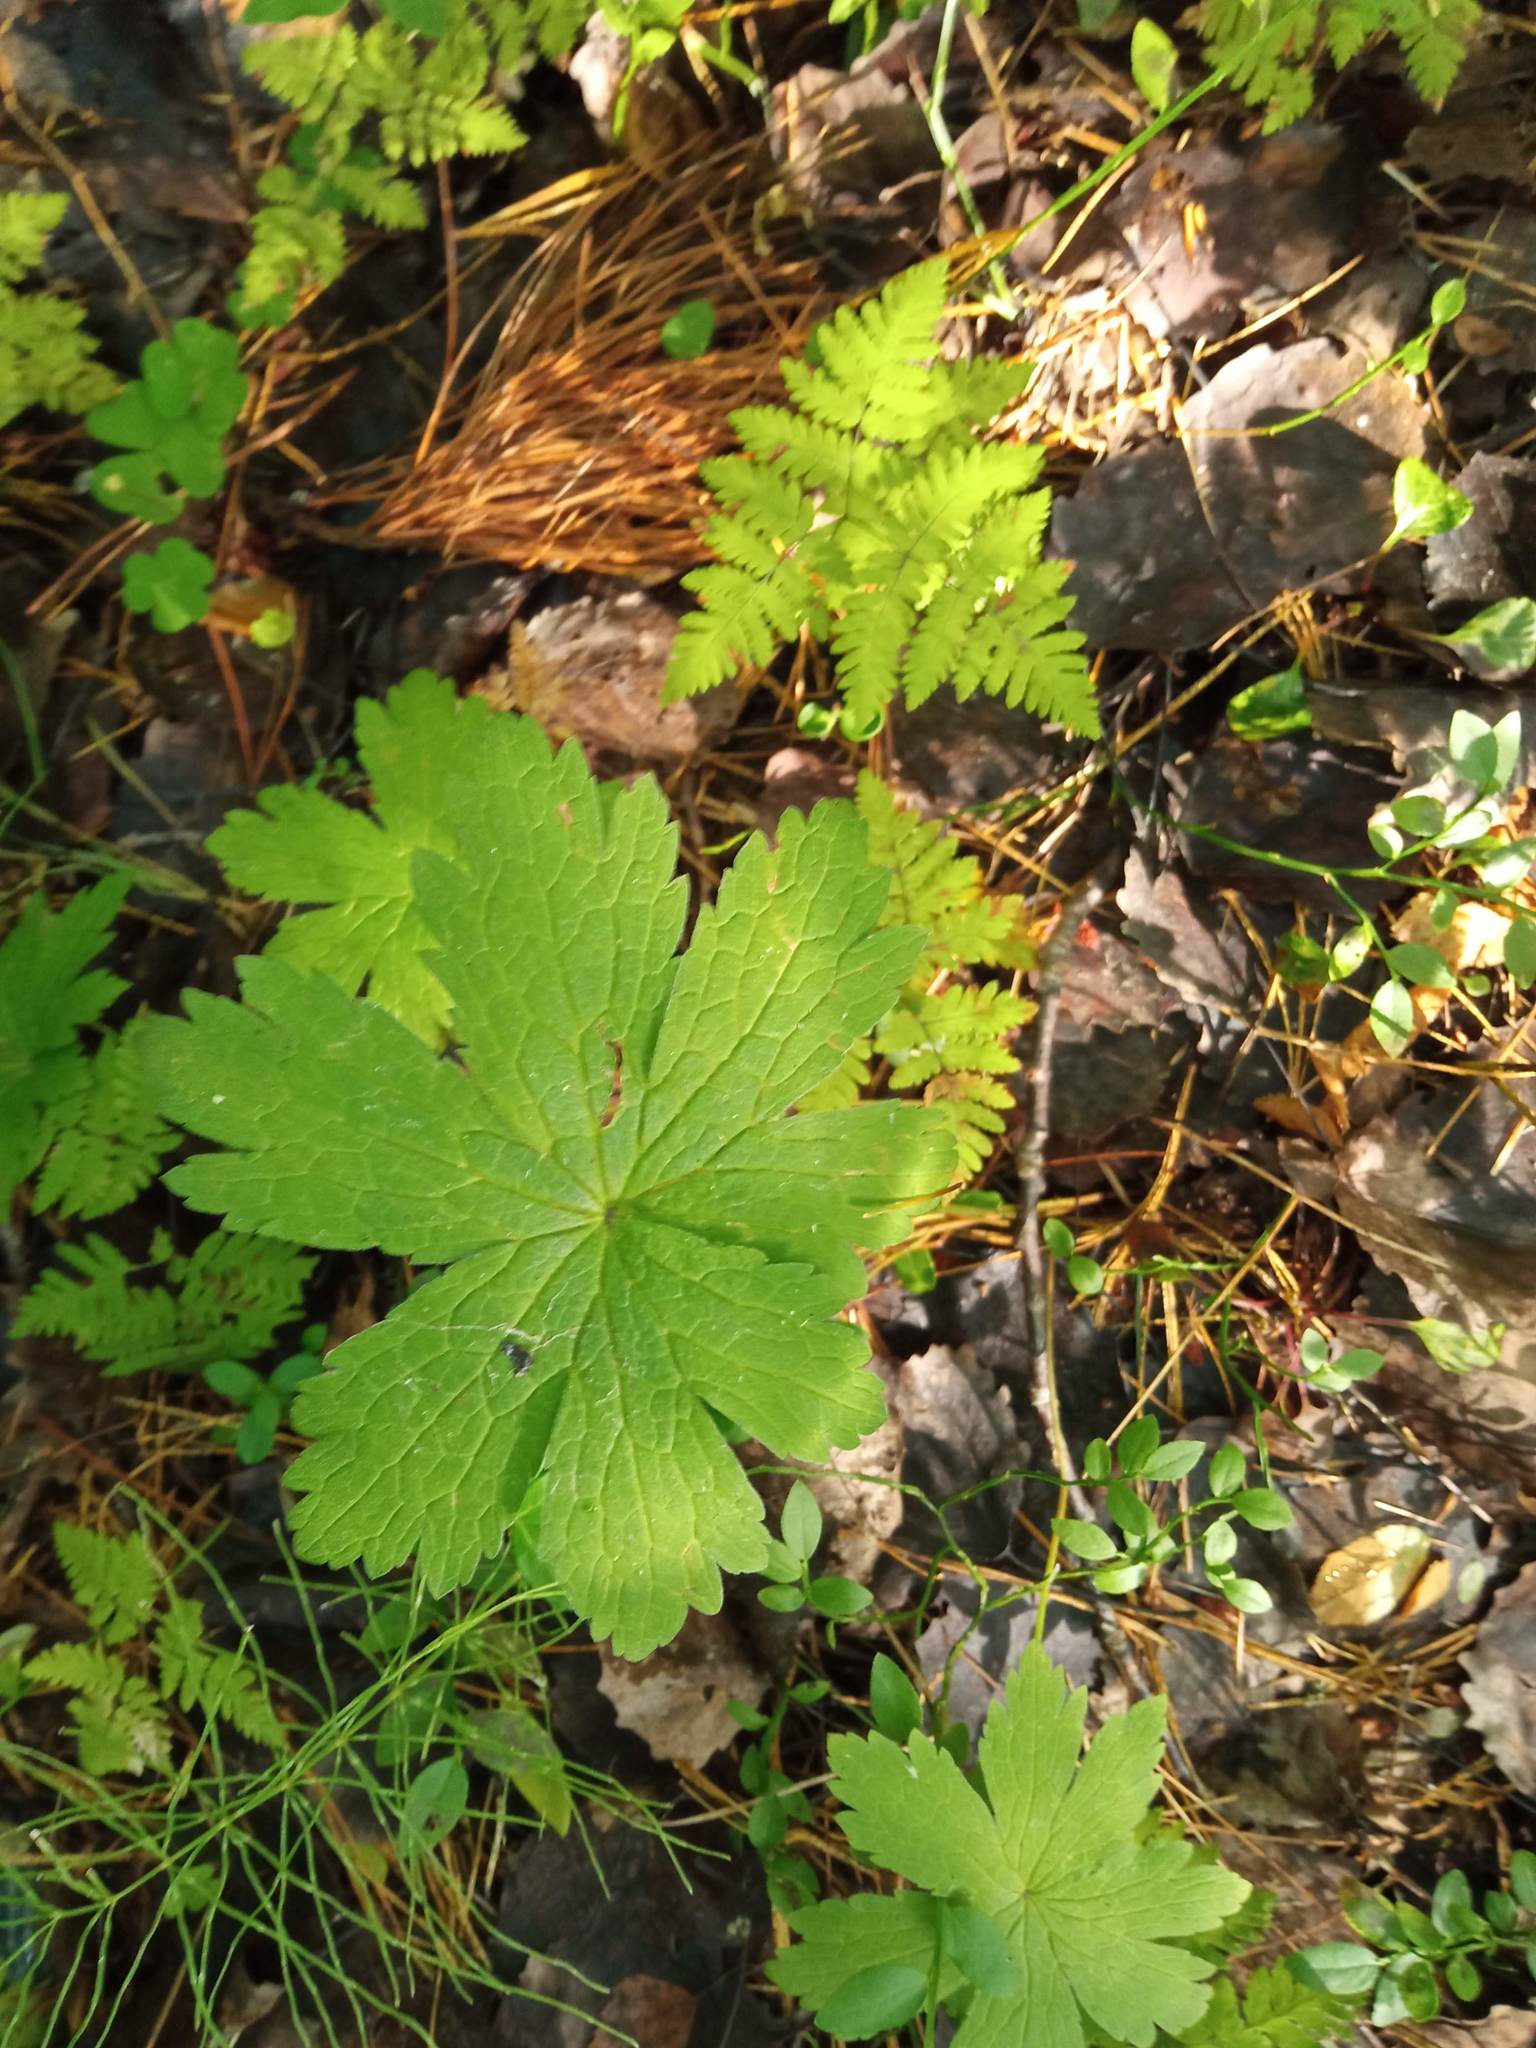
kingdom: Plantae
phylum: Tracheophyta
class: Magnoliopsida
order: Geraniales
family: Geraniaceae
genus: Geranium
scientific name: Geranium sylvaticum
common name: Wood crane's-bill
